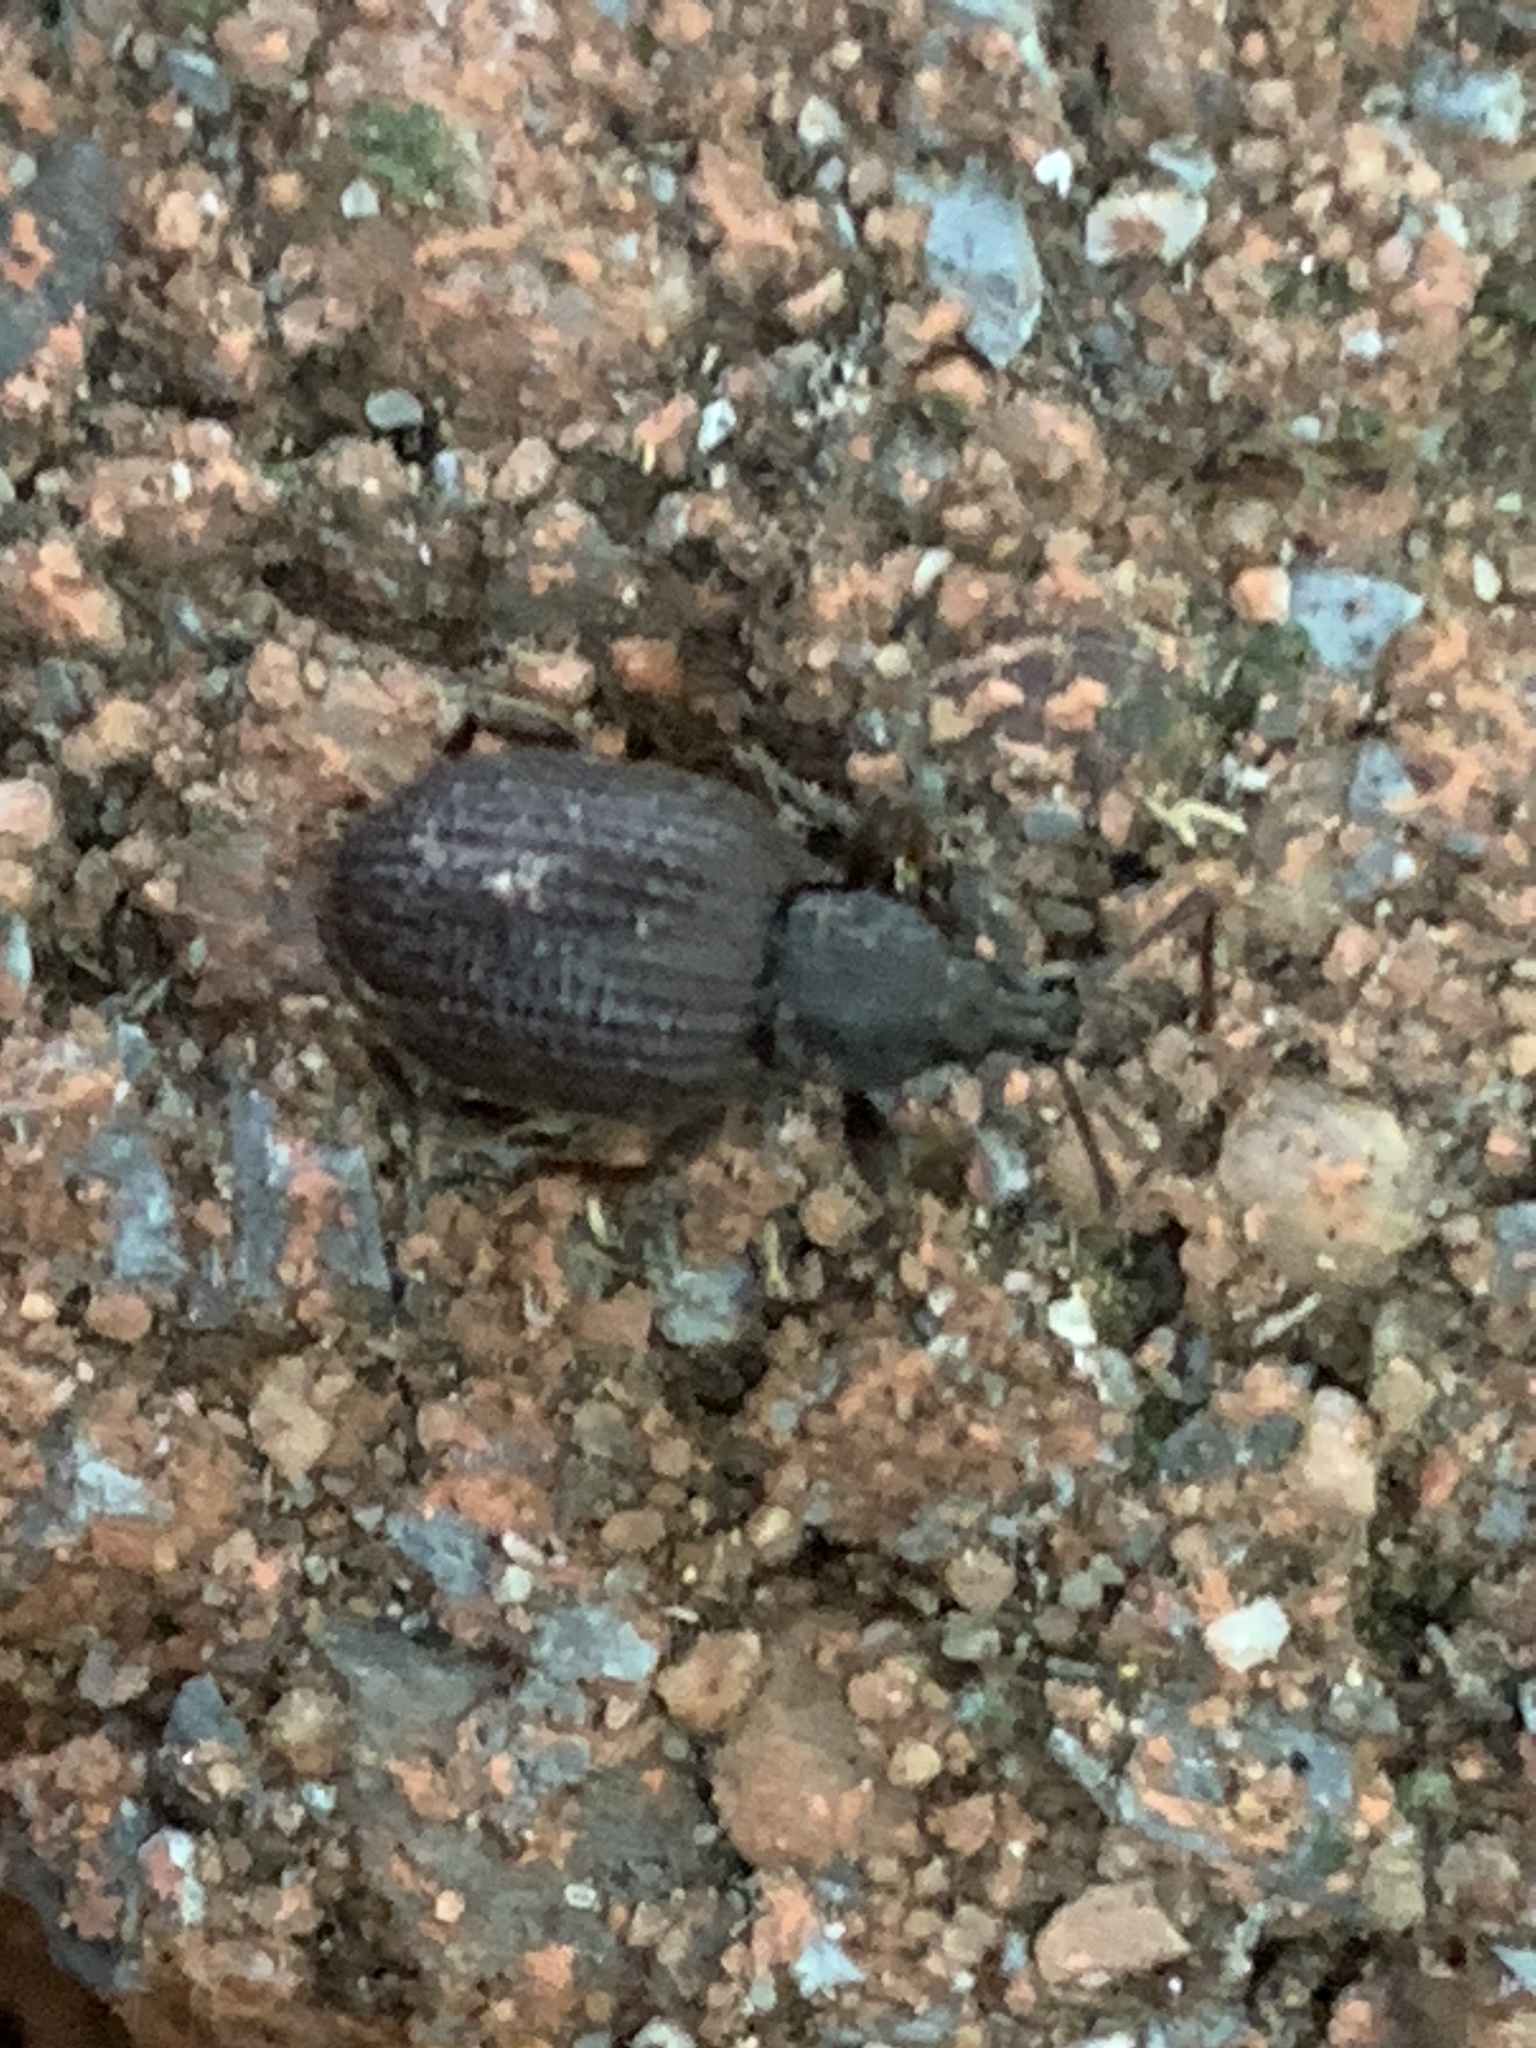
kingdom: Animalia
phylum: Arthropoda
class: Insecta
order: Coleoptera
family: Curculionidae
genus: Otiorhynchus
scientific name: Otiorhynchus rugosostriatus
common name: Weevil
